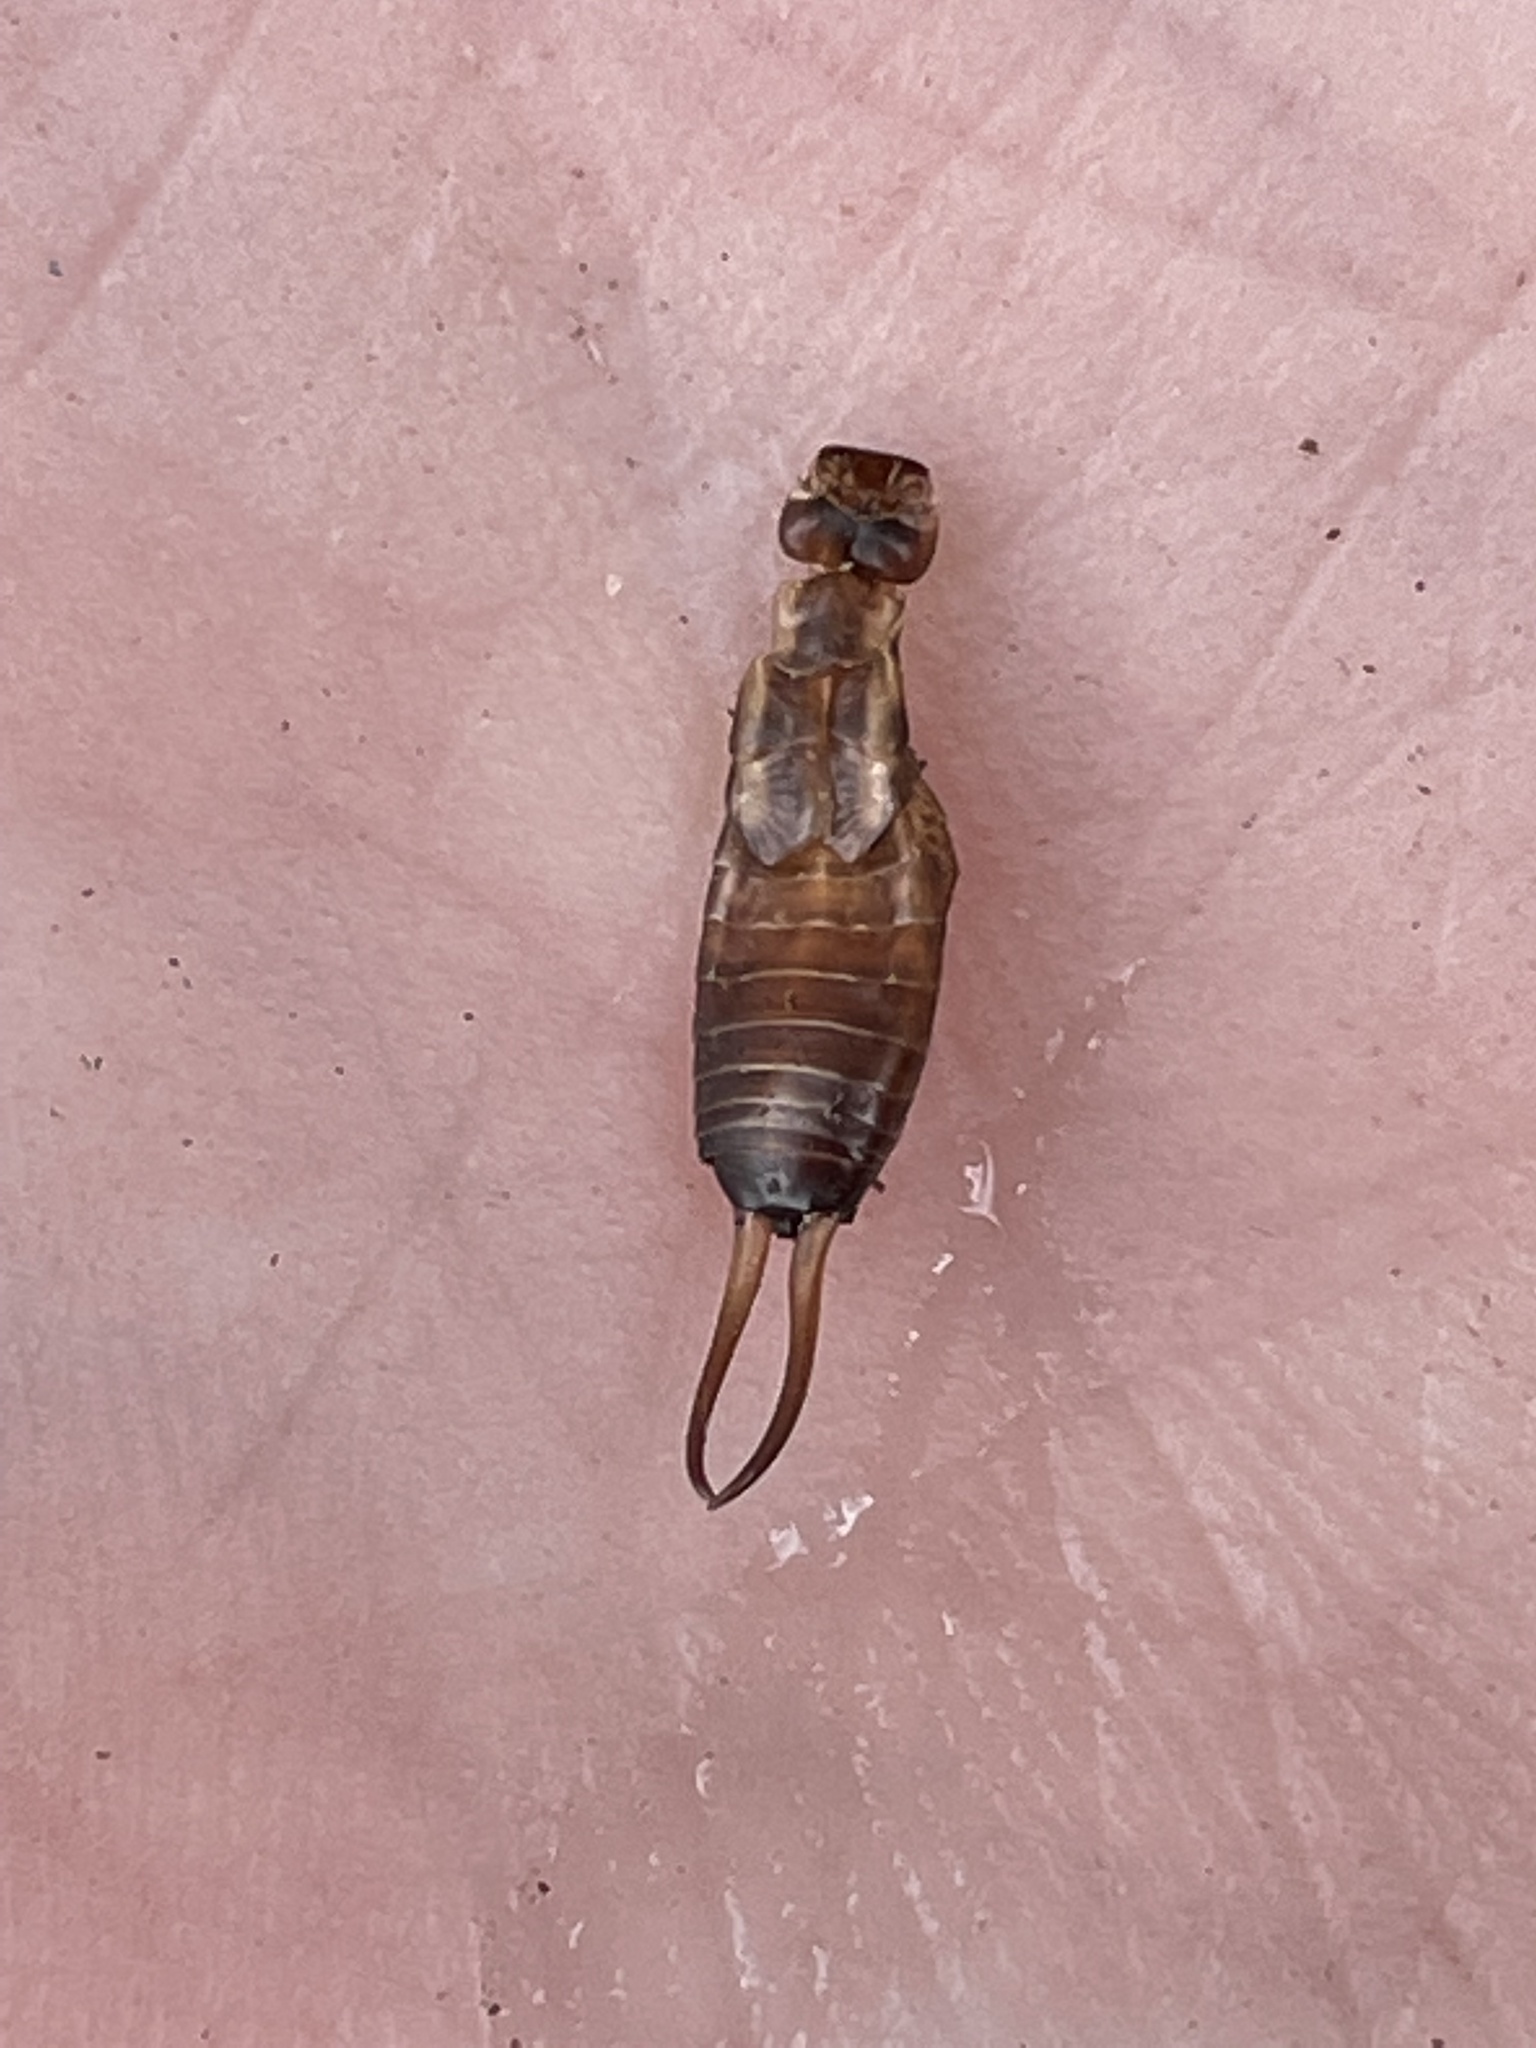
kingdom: Animalia
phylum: Arthropoda
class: Insecta
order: Dermaptera
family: Forficulidae
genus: Forficula
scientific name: Forficula
